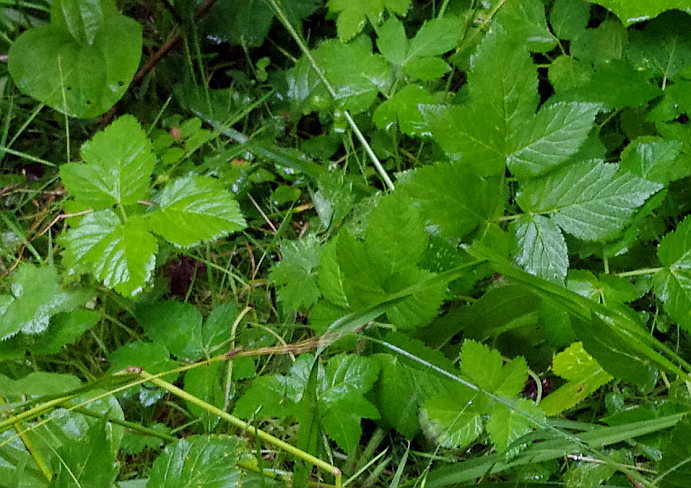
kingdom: Plantae
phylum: Tracheophyta
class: Magnoliopsida
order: Apiales
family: Apiaceae
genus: Aegopodium
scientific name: Aegopodium podagraria
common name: Ground-elder
